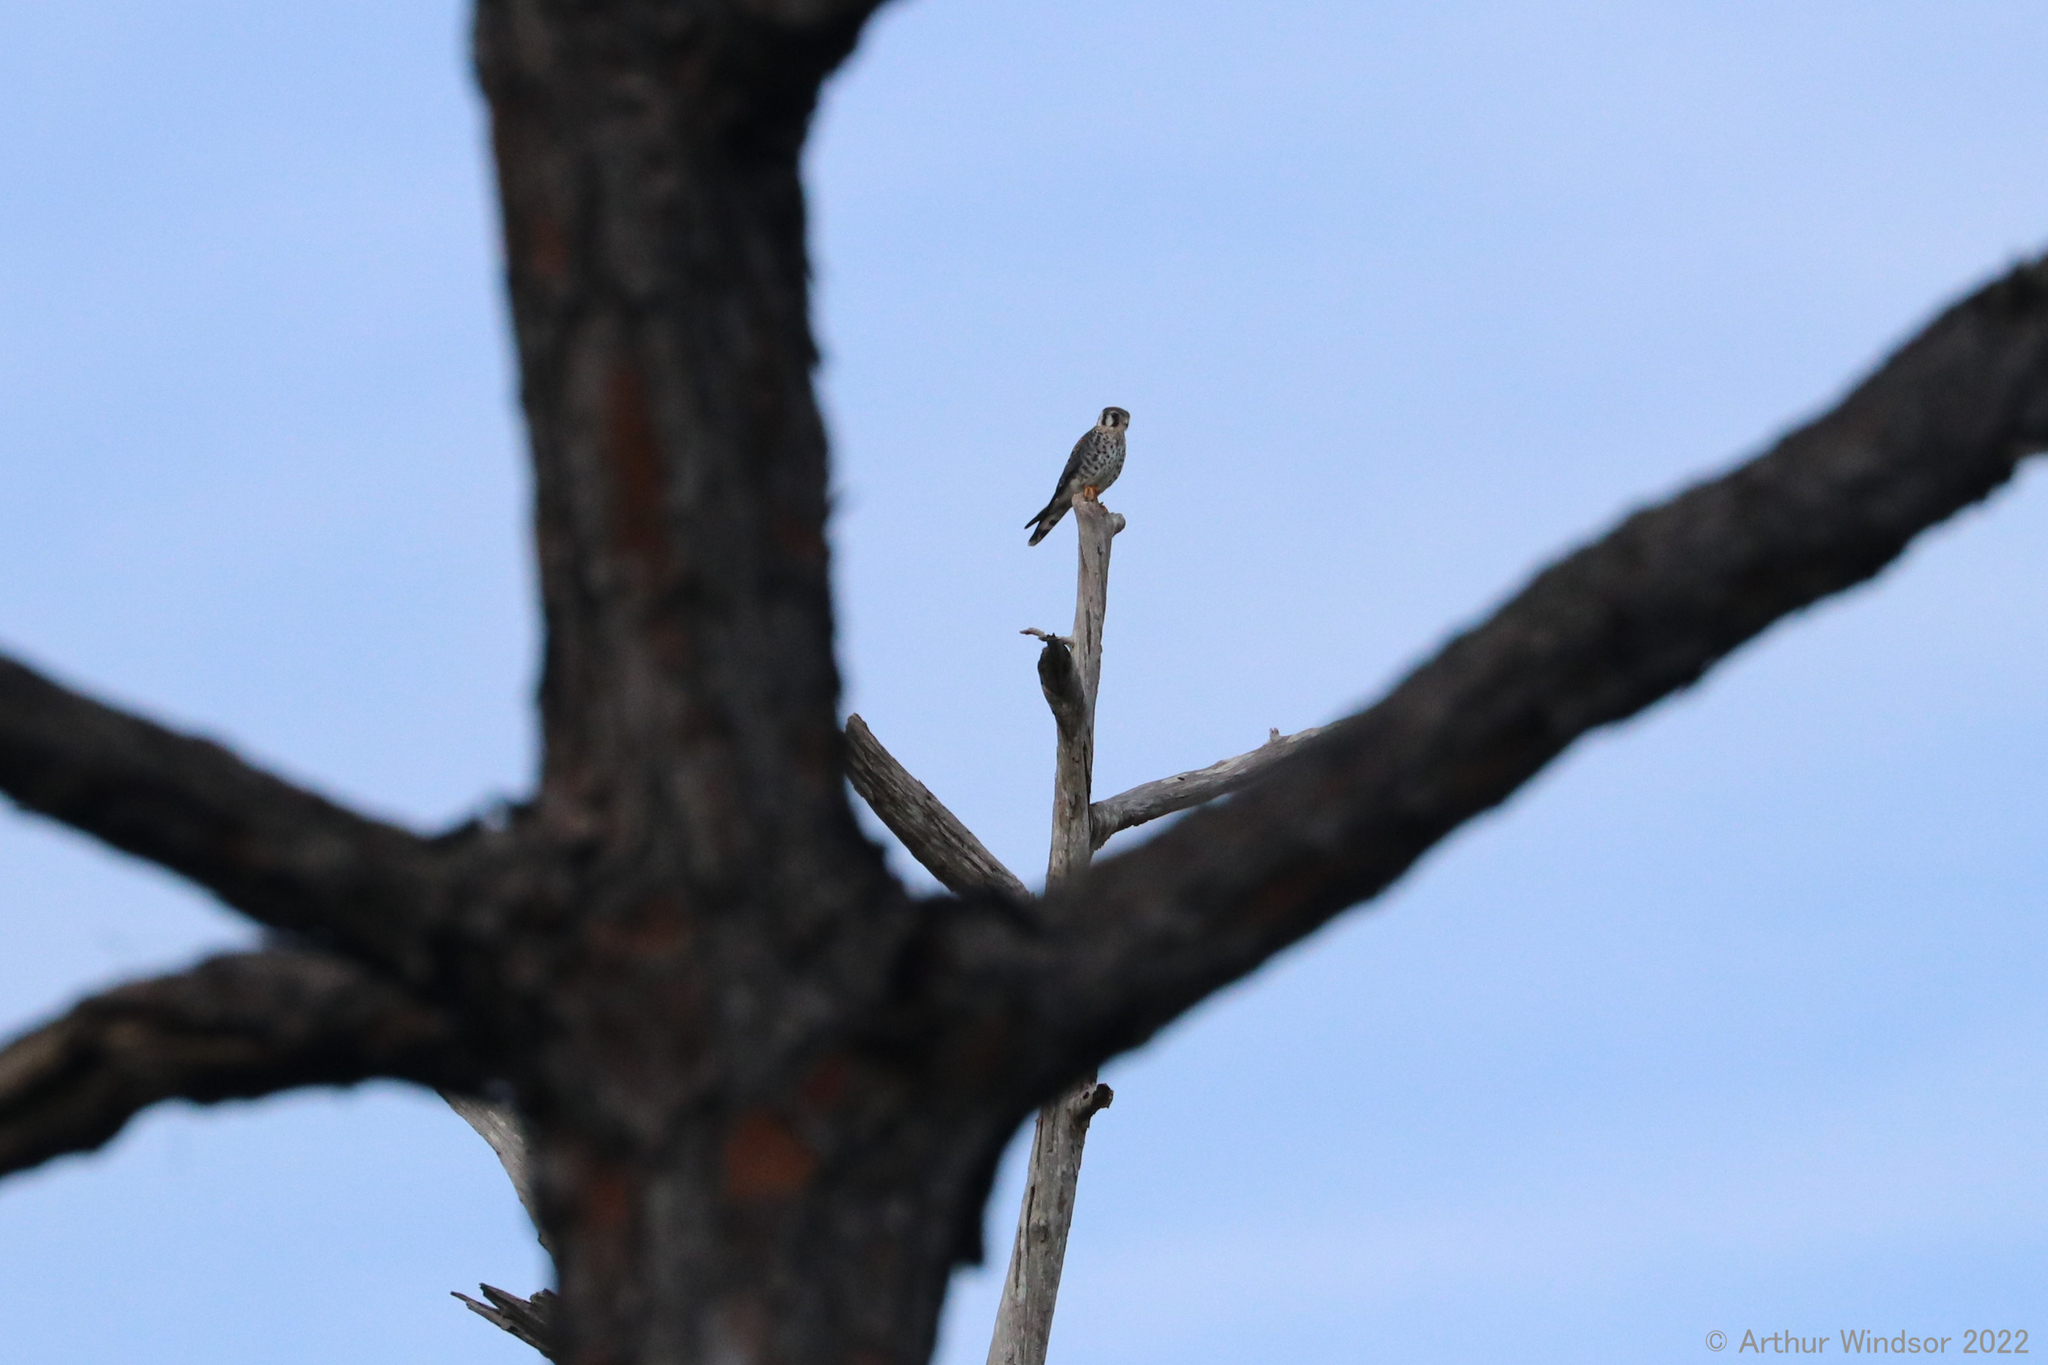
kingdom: Animalia
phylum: Chordata
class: Aves
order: Falconiformes
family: Falconidae
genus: Falco
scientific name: Falco sparverius
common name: American kestrel
